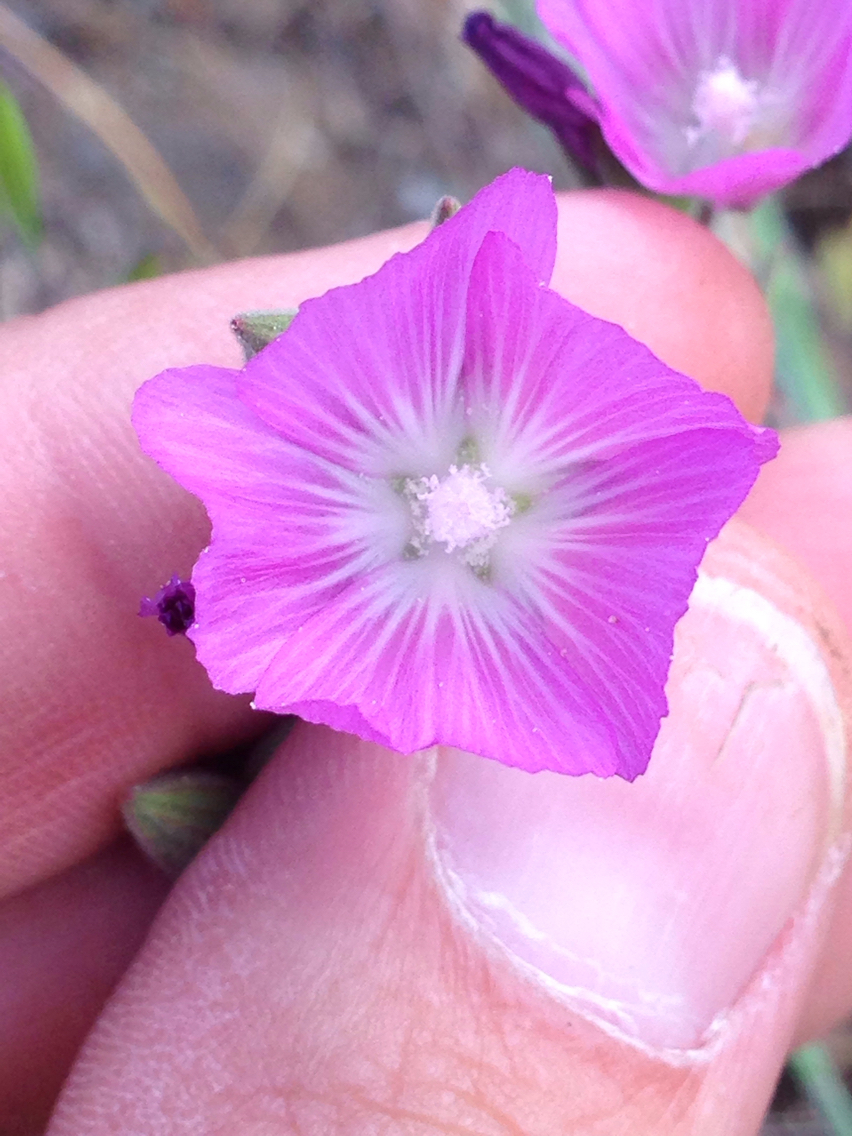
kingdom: Plantae
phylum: Tracheophyta
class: Magnoliopsida
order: Malvales
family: Malvaceae
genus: Sidalcea
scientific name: Sidalcea hartwegii
